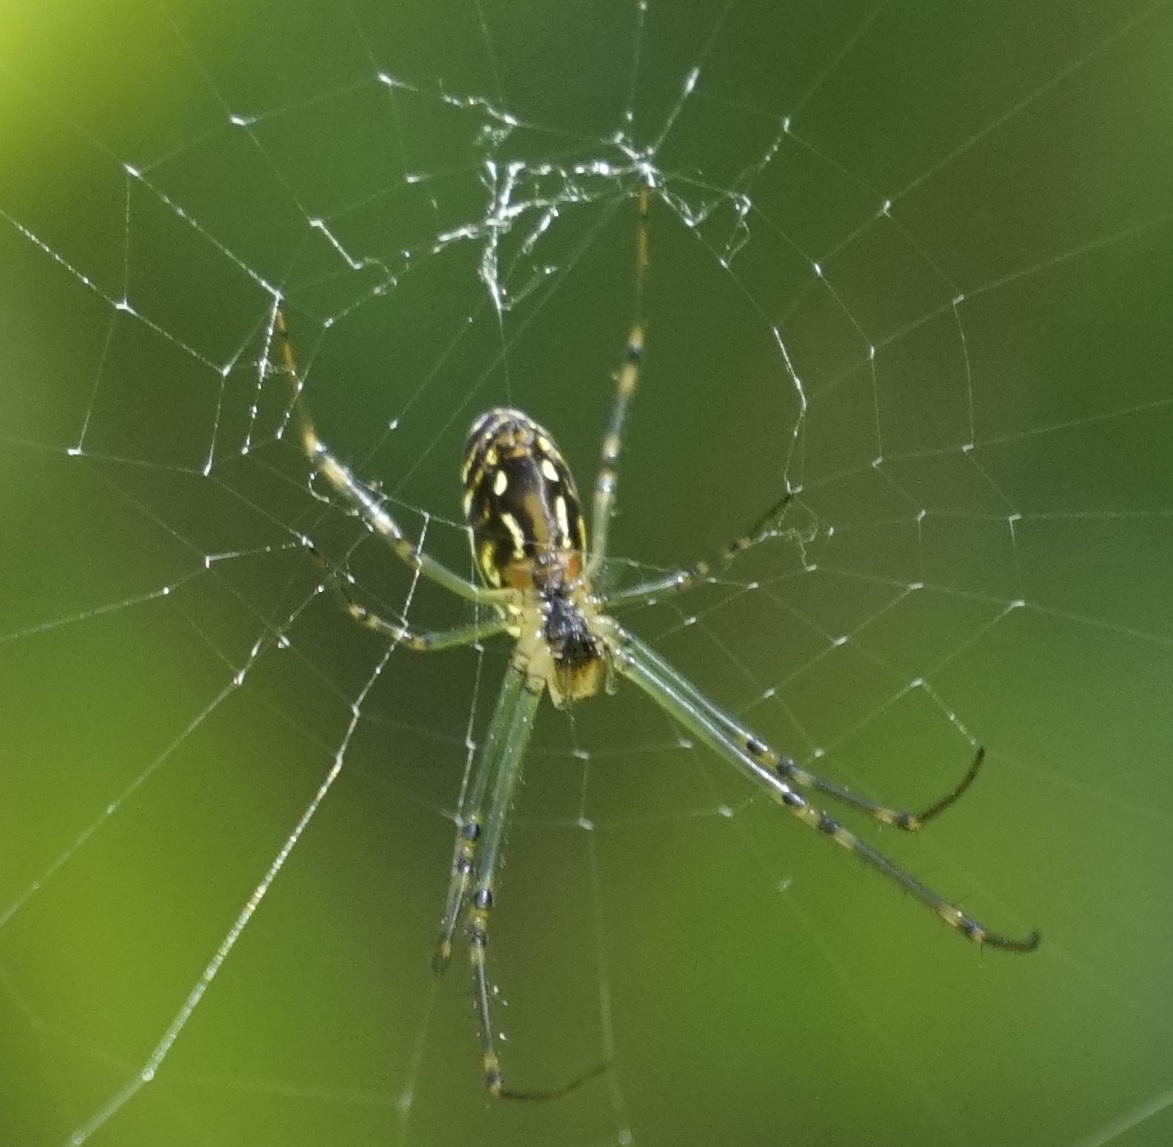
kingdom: Animalia
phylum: Arthropoda
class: Arachnida
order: Araneae
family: Tetragnathidae
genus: Leucauge
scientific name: Leucauge dromedaria
